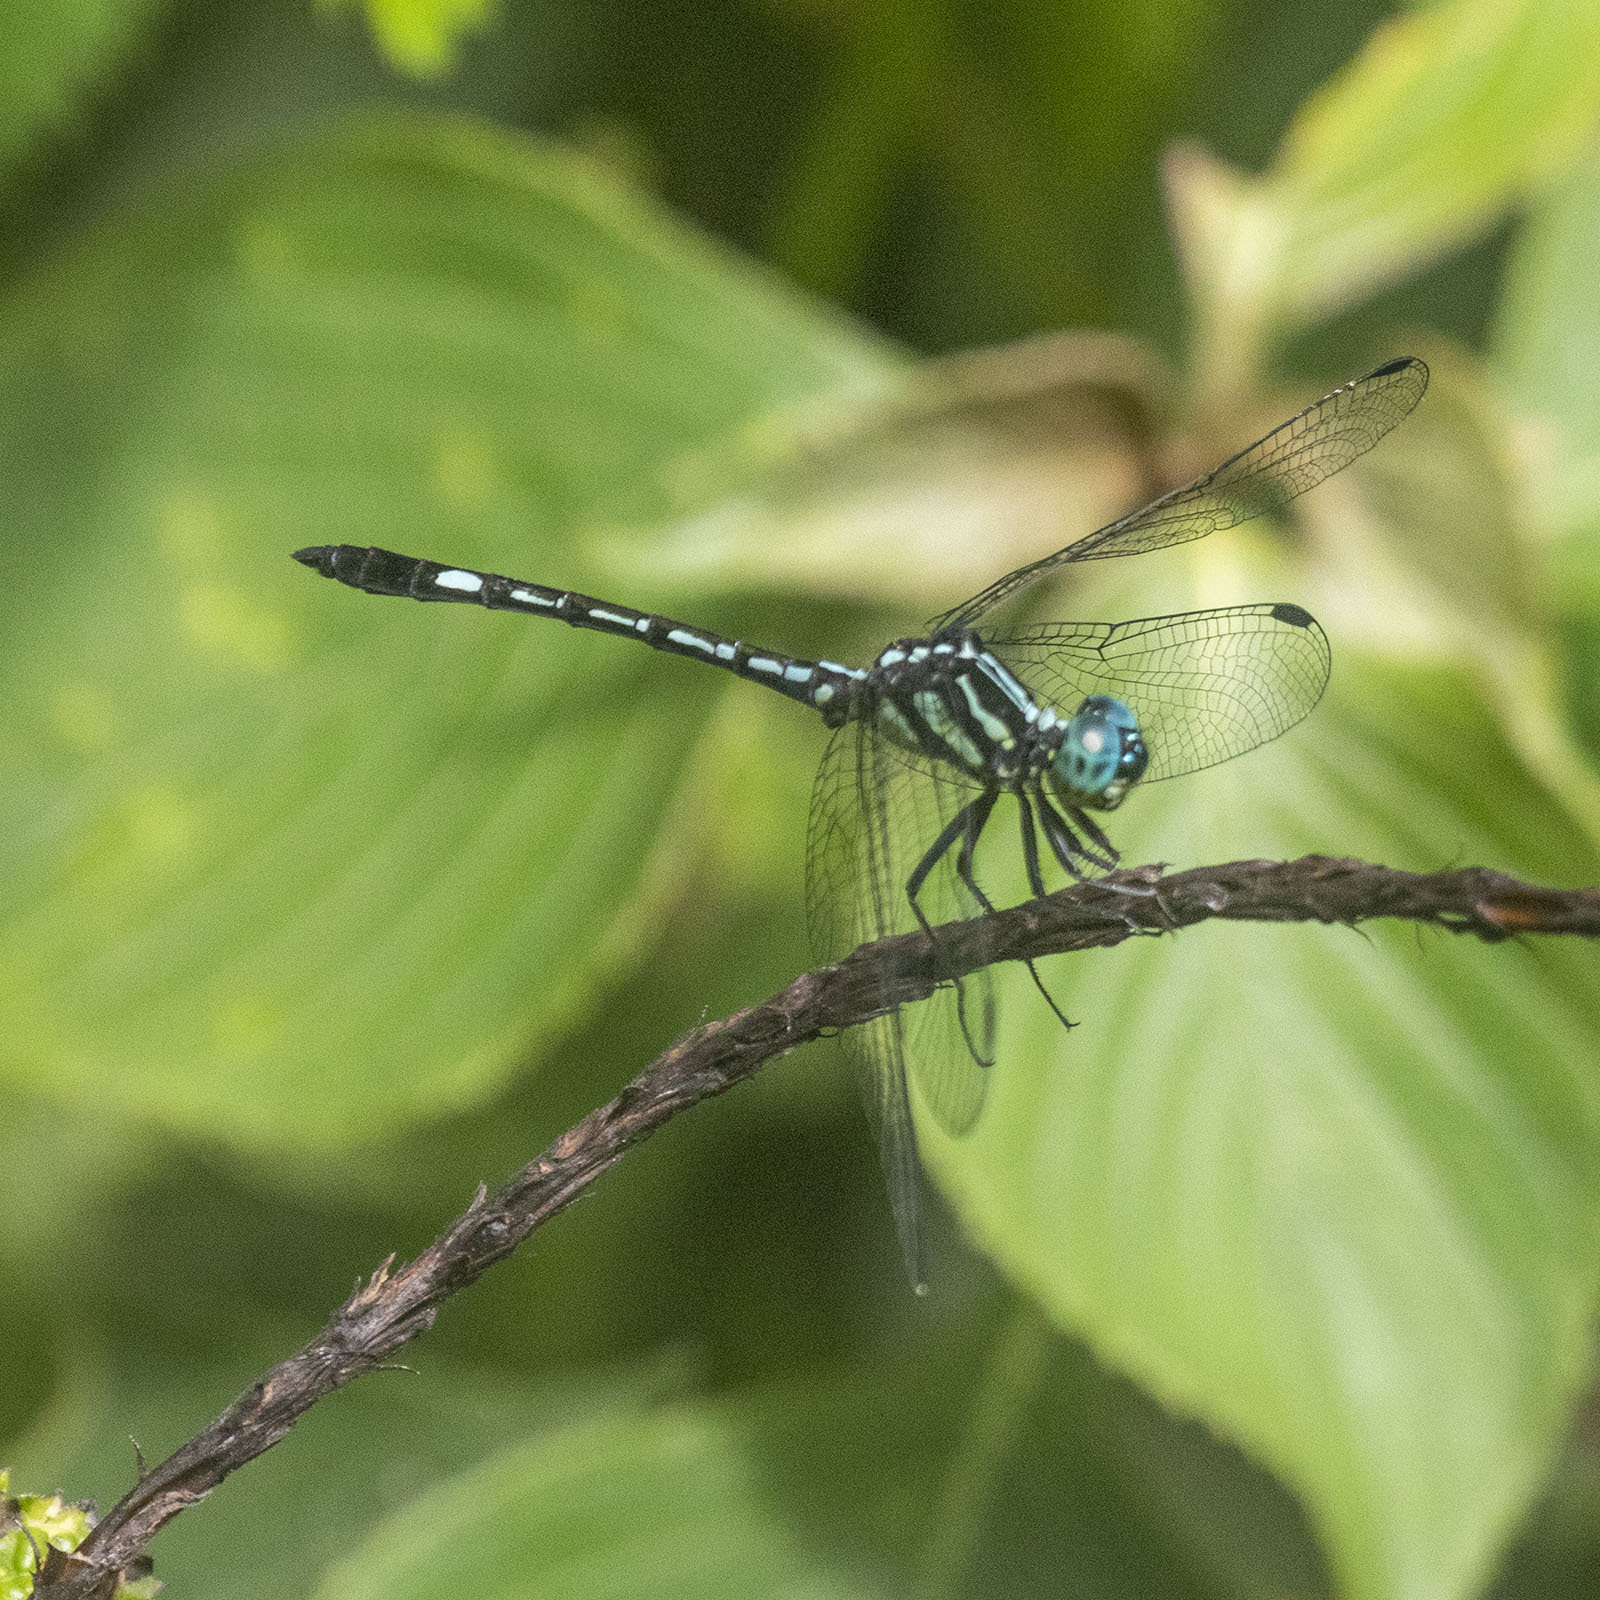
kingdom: Animalia
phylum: Arthropoda
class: Insecta
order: Odonata
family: Libellulidae
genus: Hylaeothemis
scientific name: Hylaeothemis apicalis
